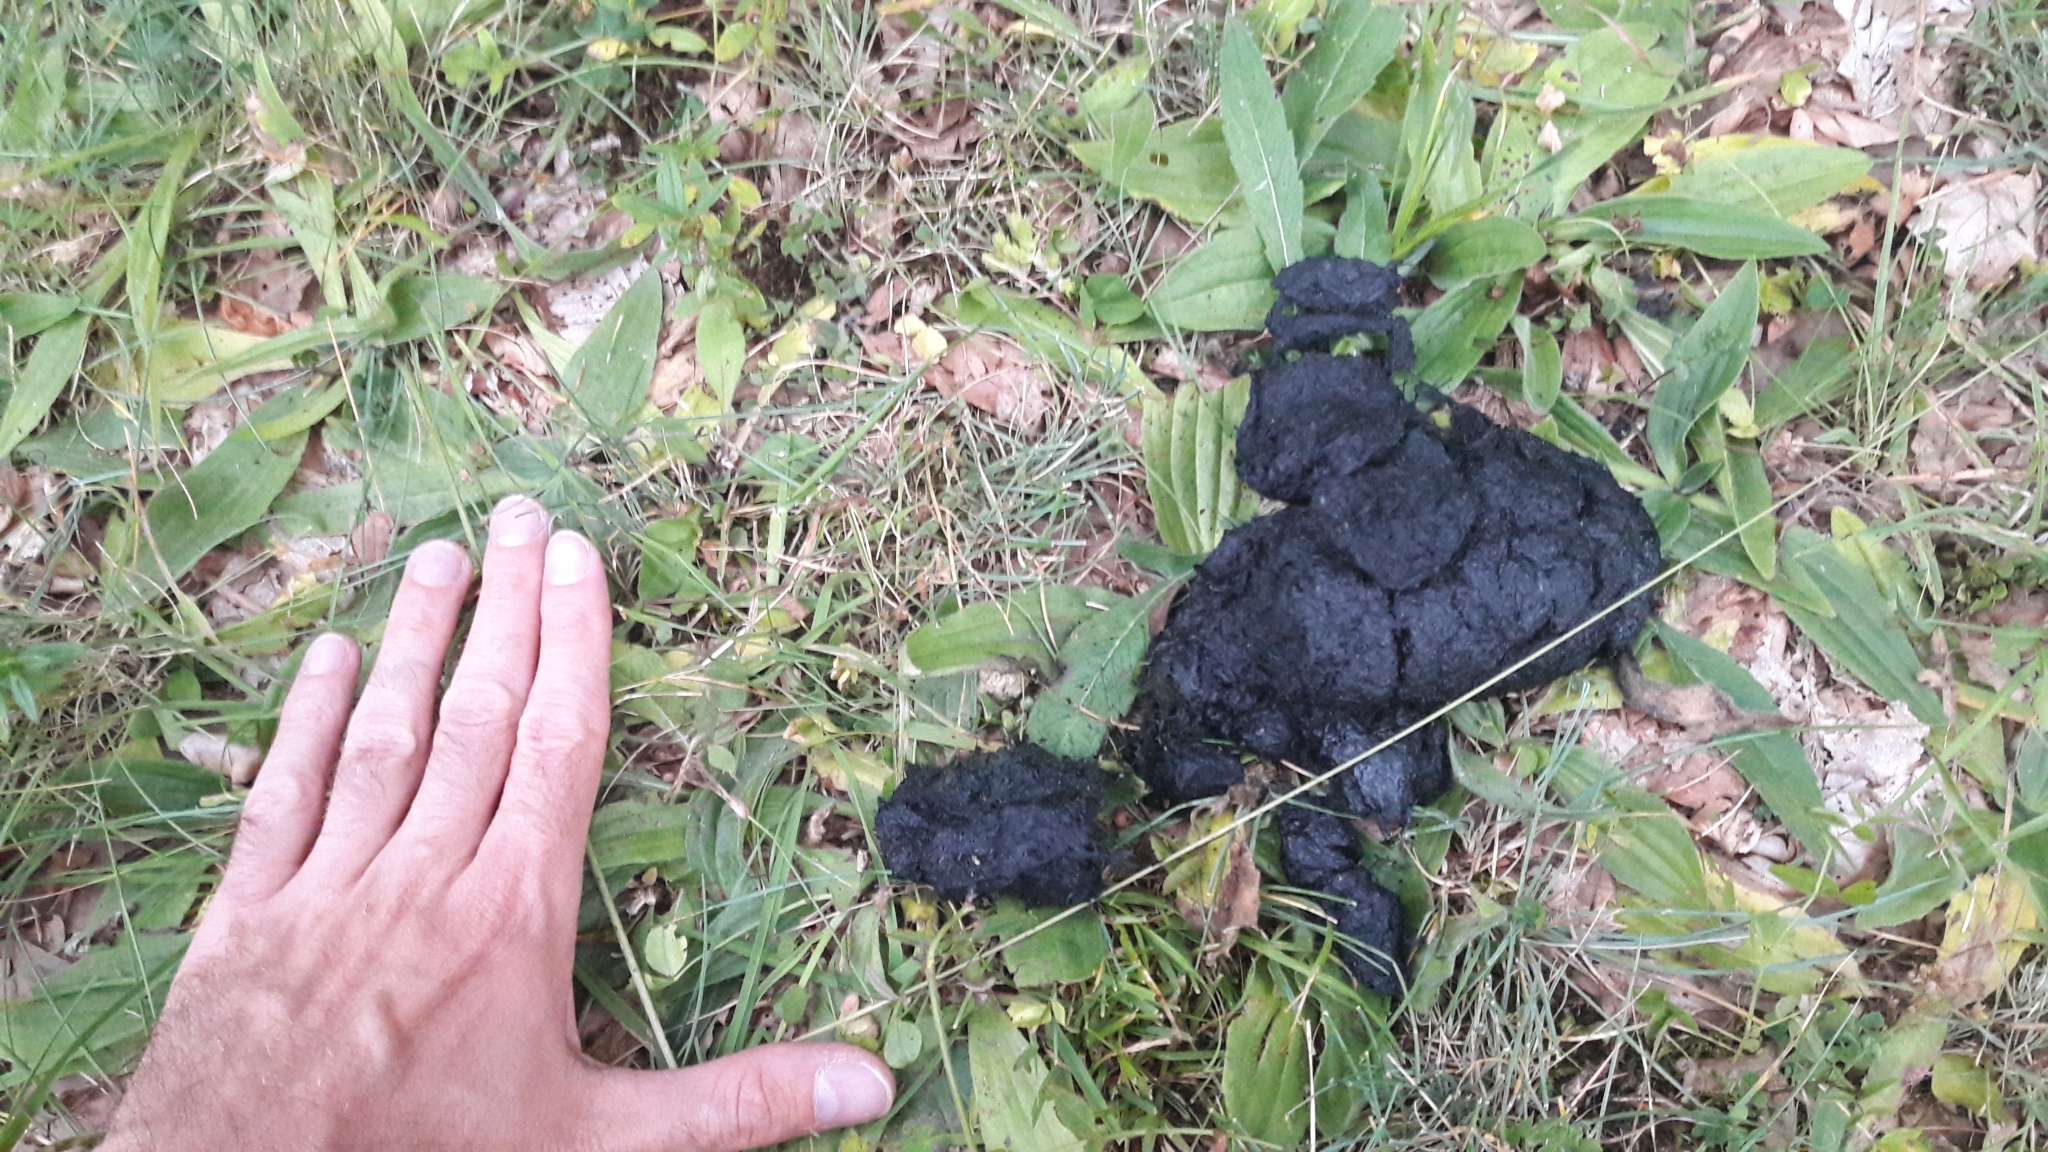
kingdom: Animalia
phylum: Chordata
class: Mammalia
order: Carnivora
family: Ursidae
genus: Ursus
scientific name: Ursus arctos
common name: Brown bear
